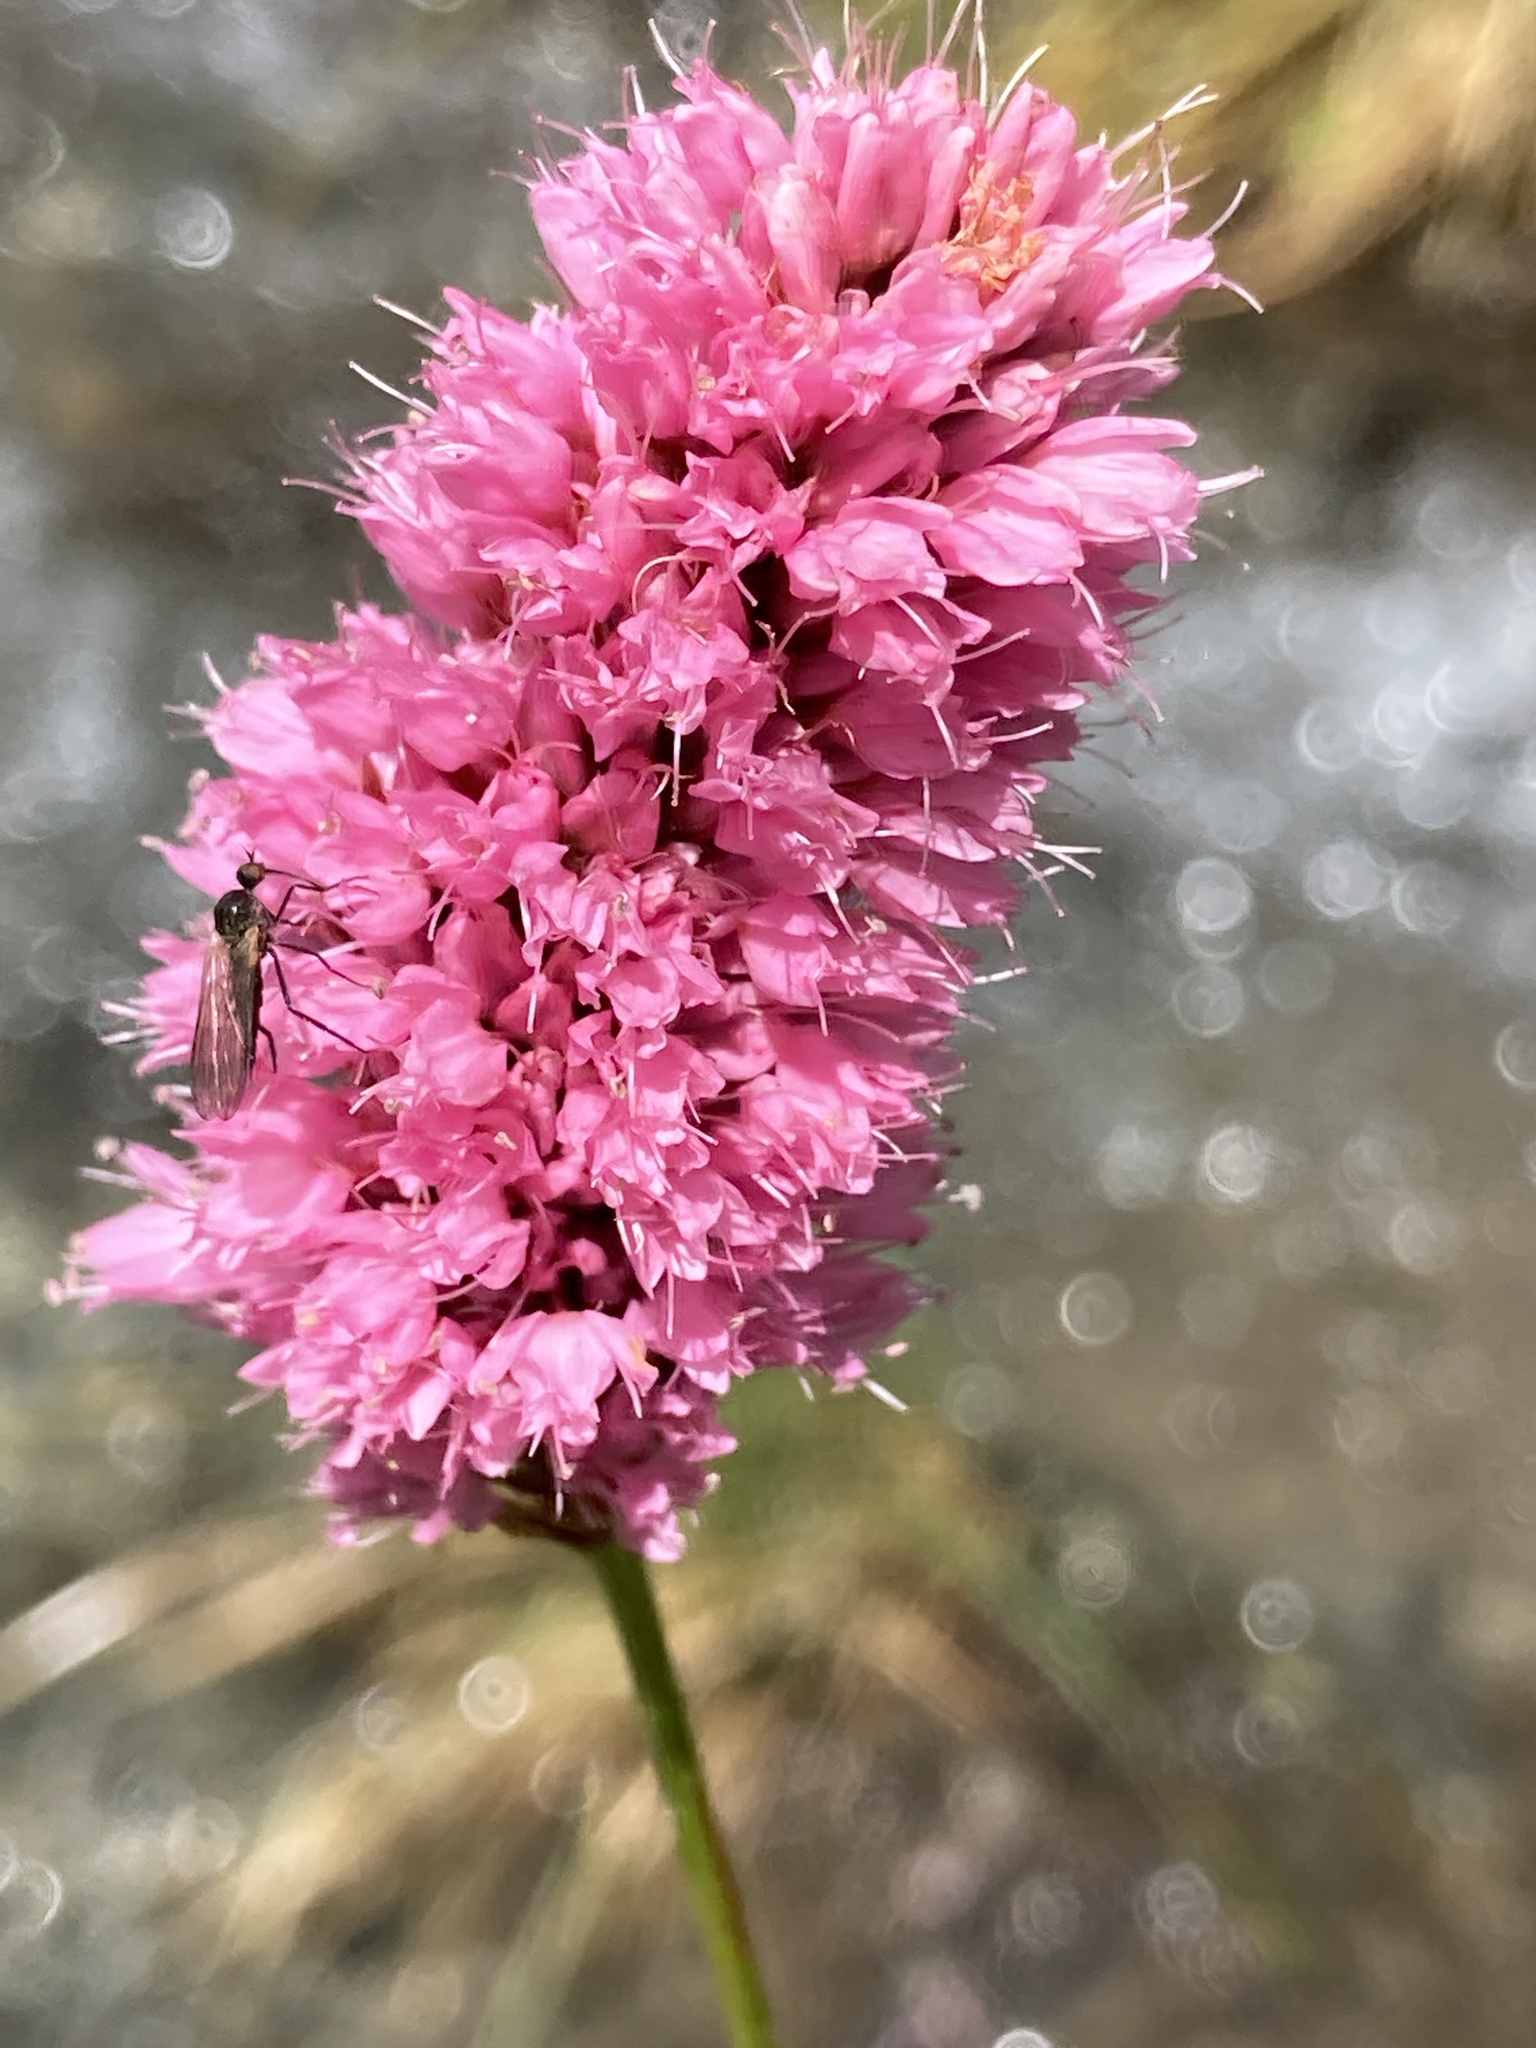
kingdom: Plantae
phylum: Tracheophyta
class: Magnoliopsida
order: Caryophyllales
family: Polygonaceae
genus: Bistorta
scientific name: Bistorta carnea
